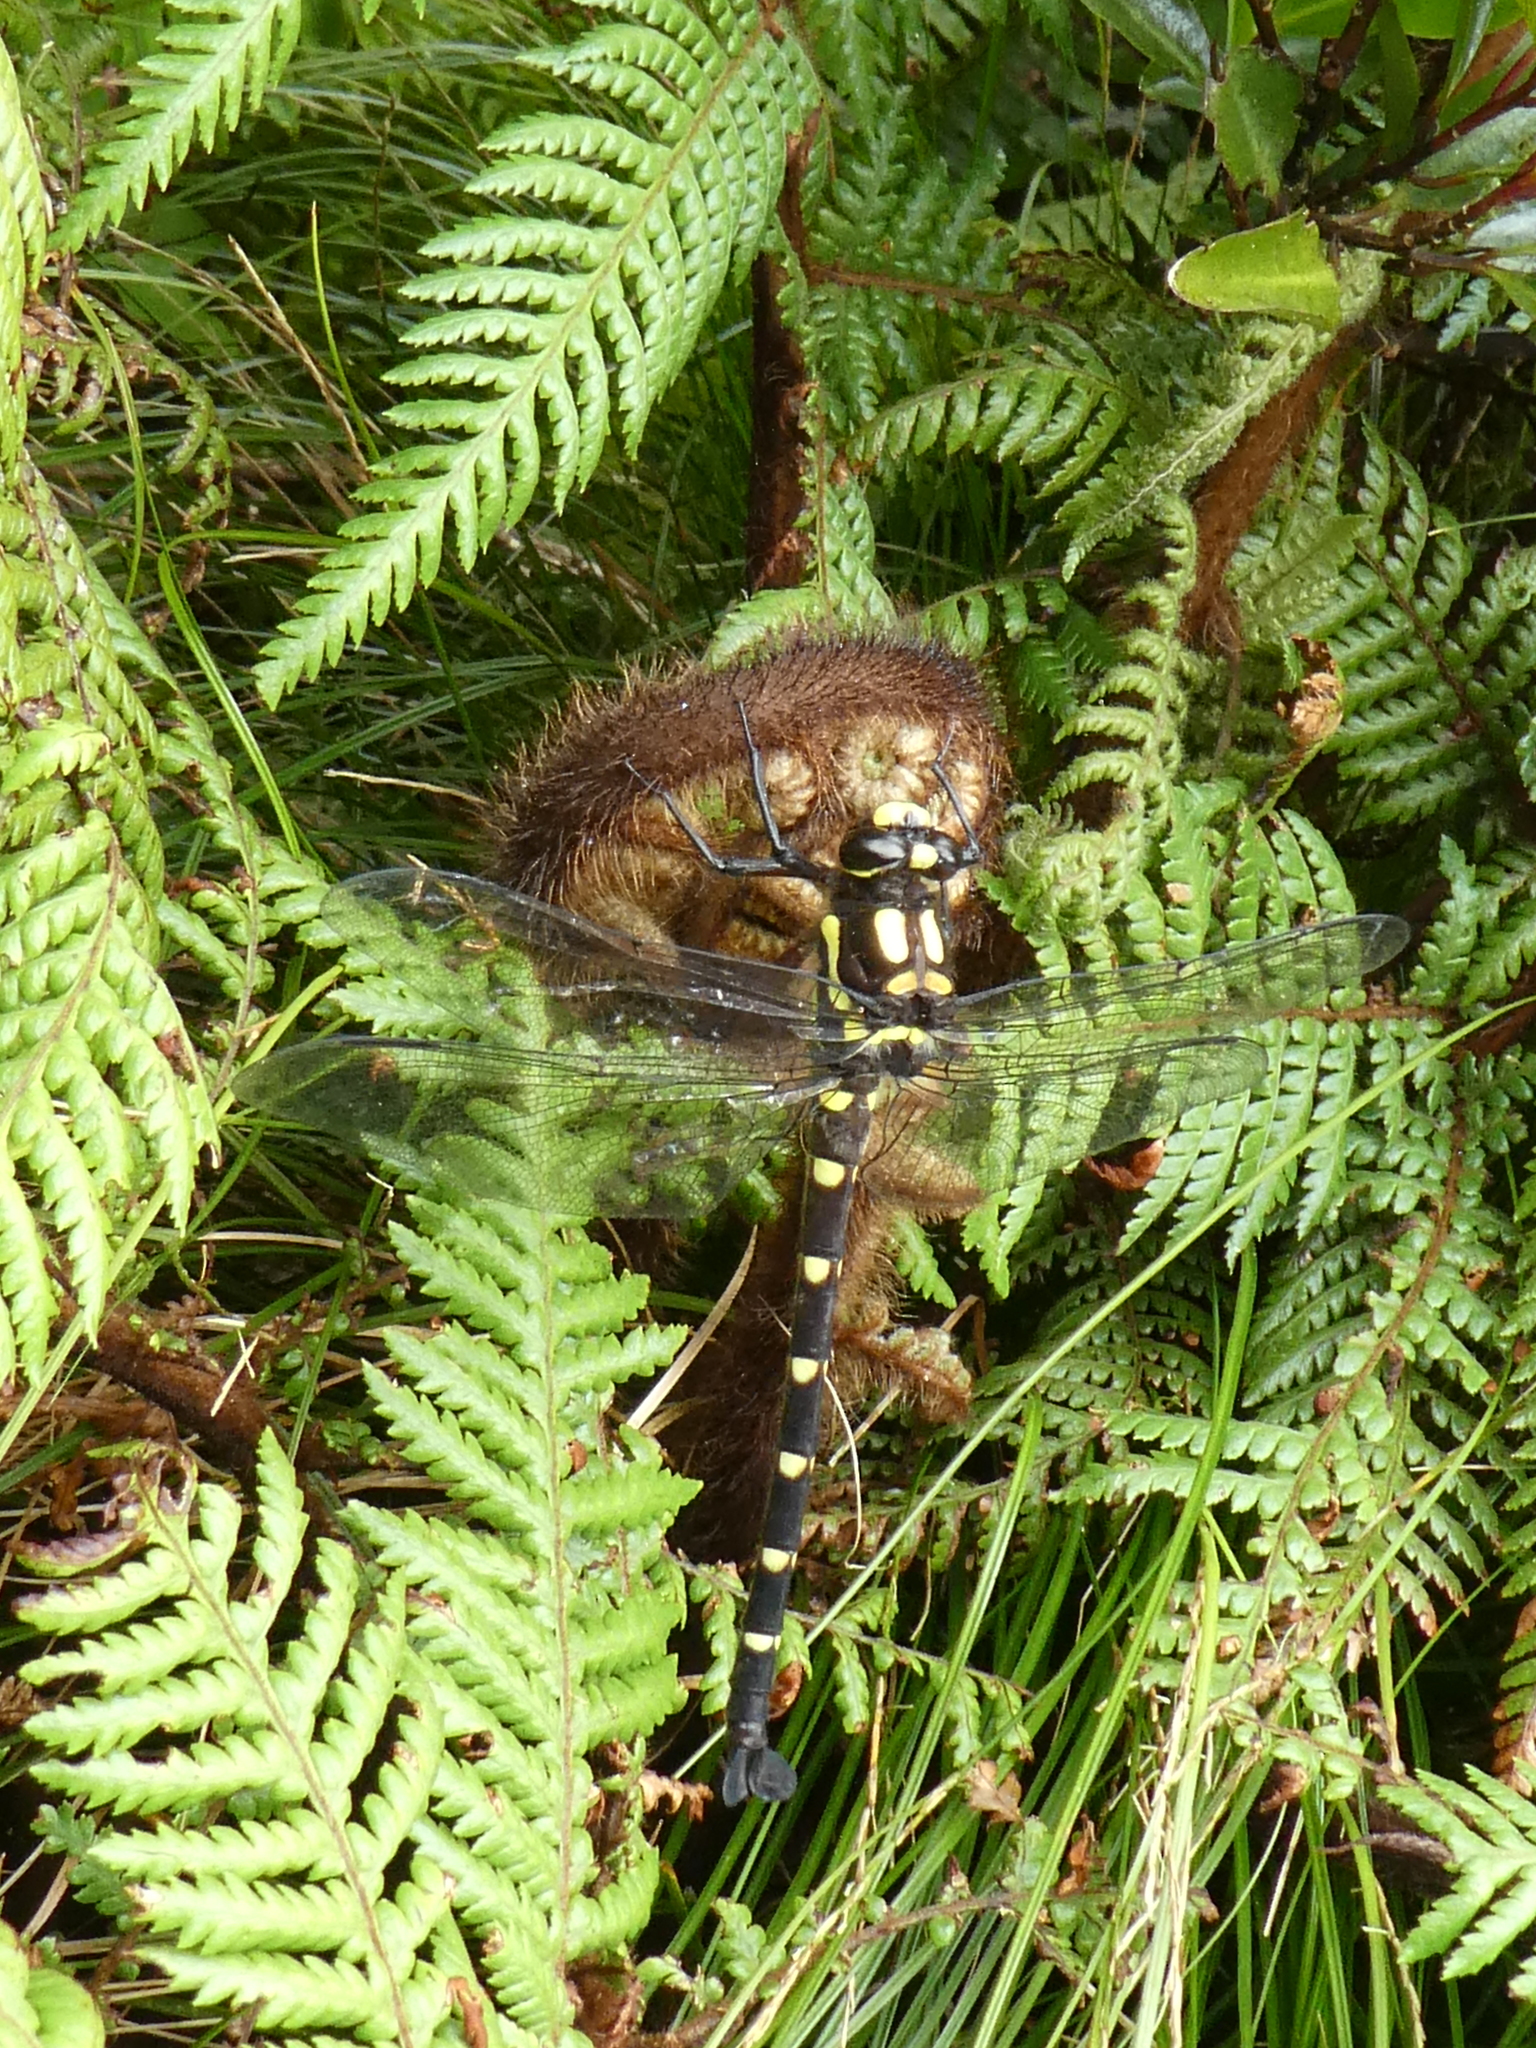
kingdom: Animalia
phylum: Arthropoda
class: Insecta
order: Odonata
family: Petaluridae
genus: Uropetala
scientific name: Uropetala carovei
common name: Bush giant dragonfly
